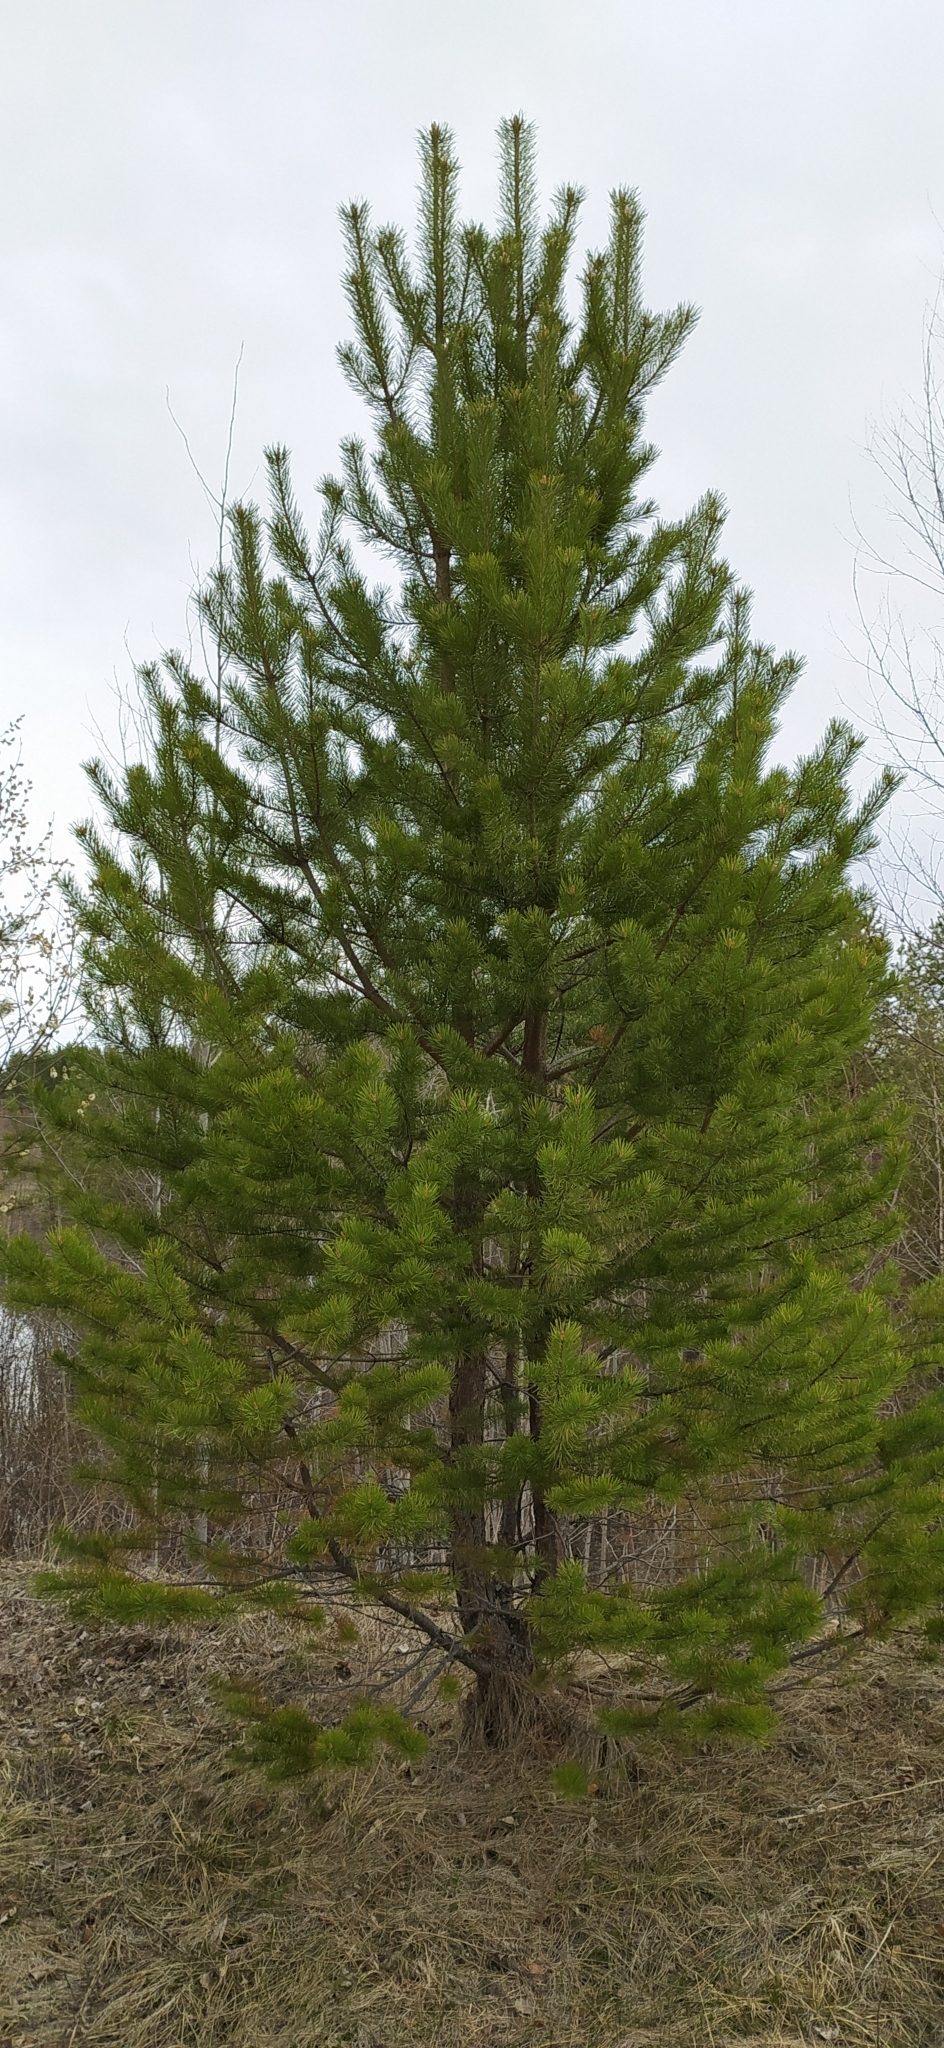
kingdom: Plantae
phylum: Tracheophyta
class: Pinopsida
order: Pinales
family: Pinaceae
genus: Pinus
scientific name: Pinus sylvestris
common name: Scots pine
